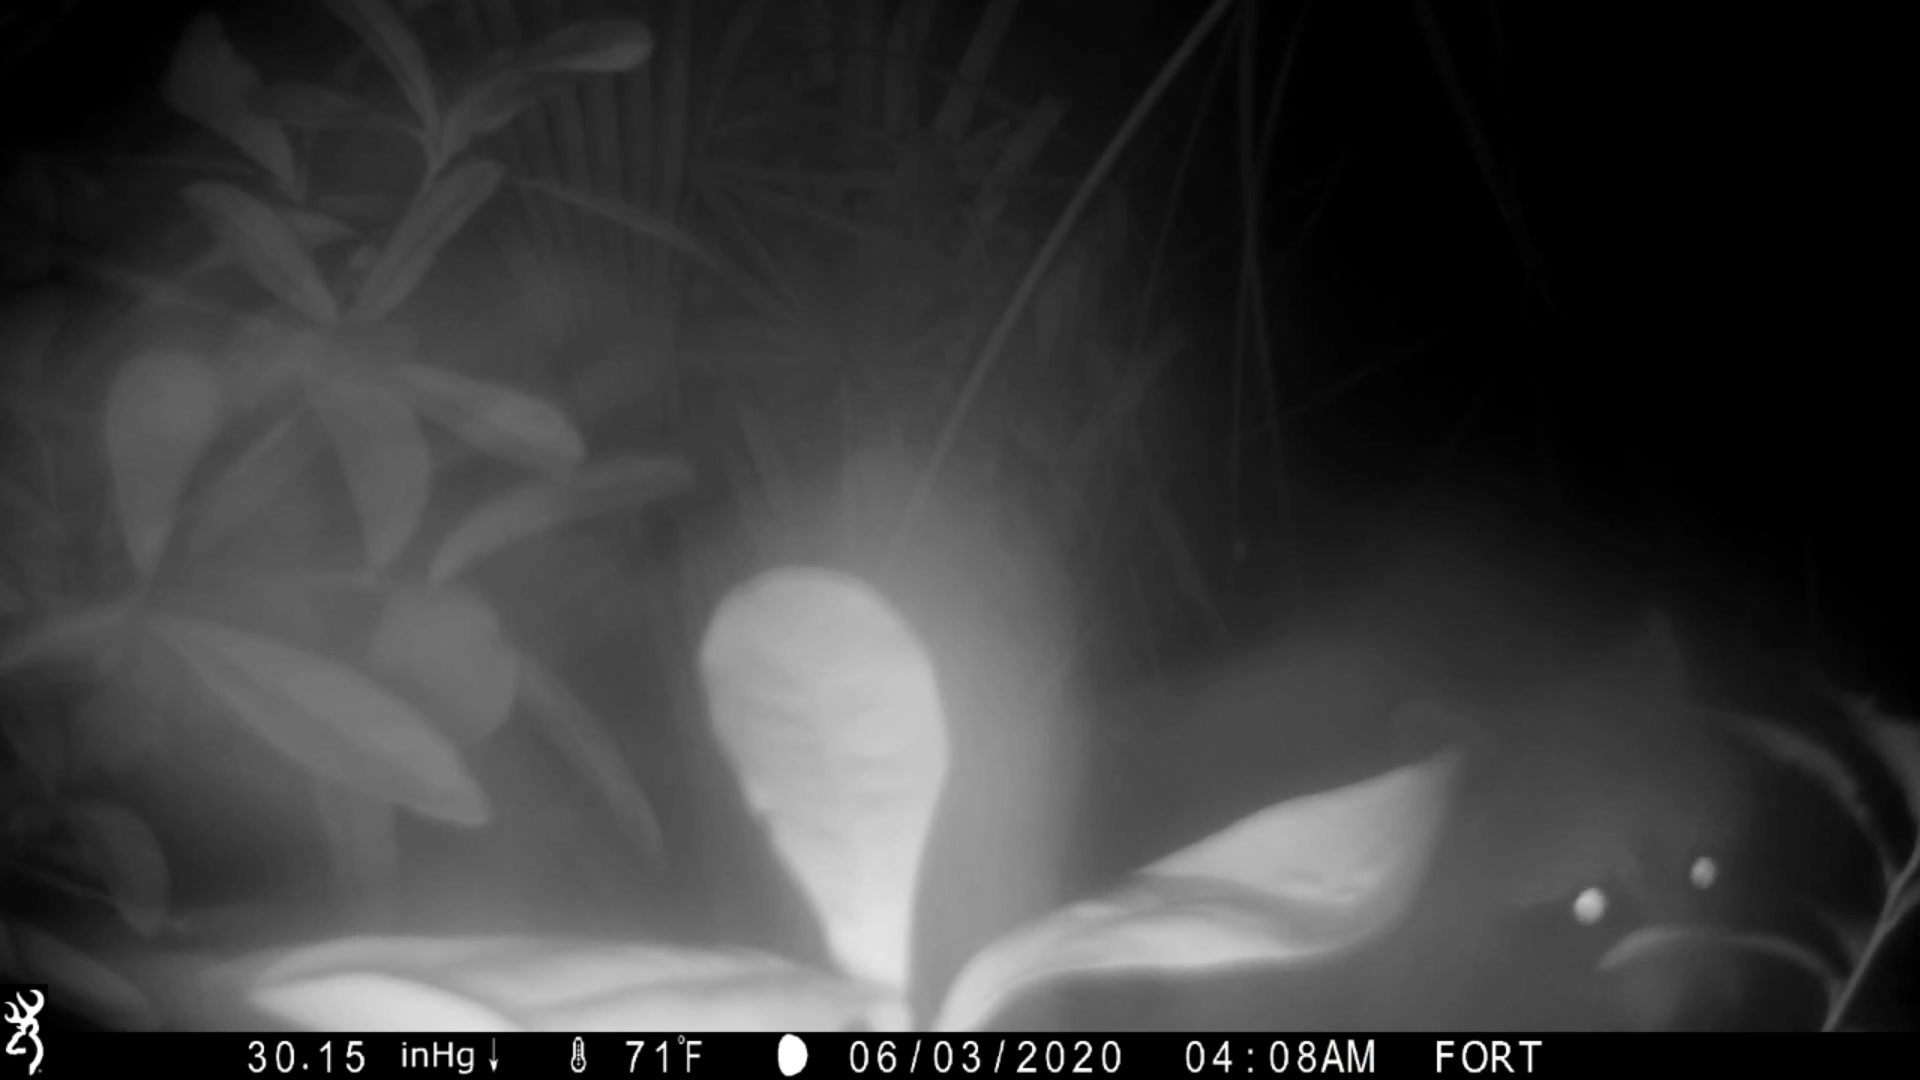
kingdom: Animalia
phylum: Chordata
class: Mammalia
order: Carnivora
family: Procyonidae
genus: Procyon
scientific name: Procyon lotor
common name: Raccoon
